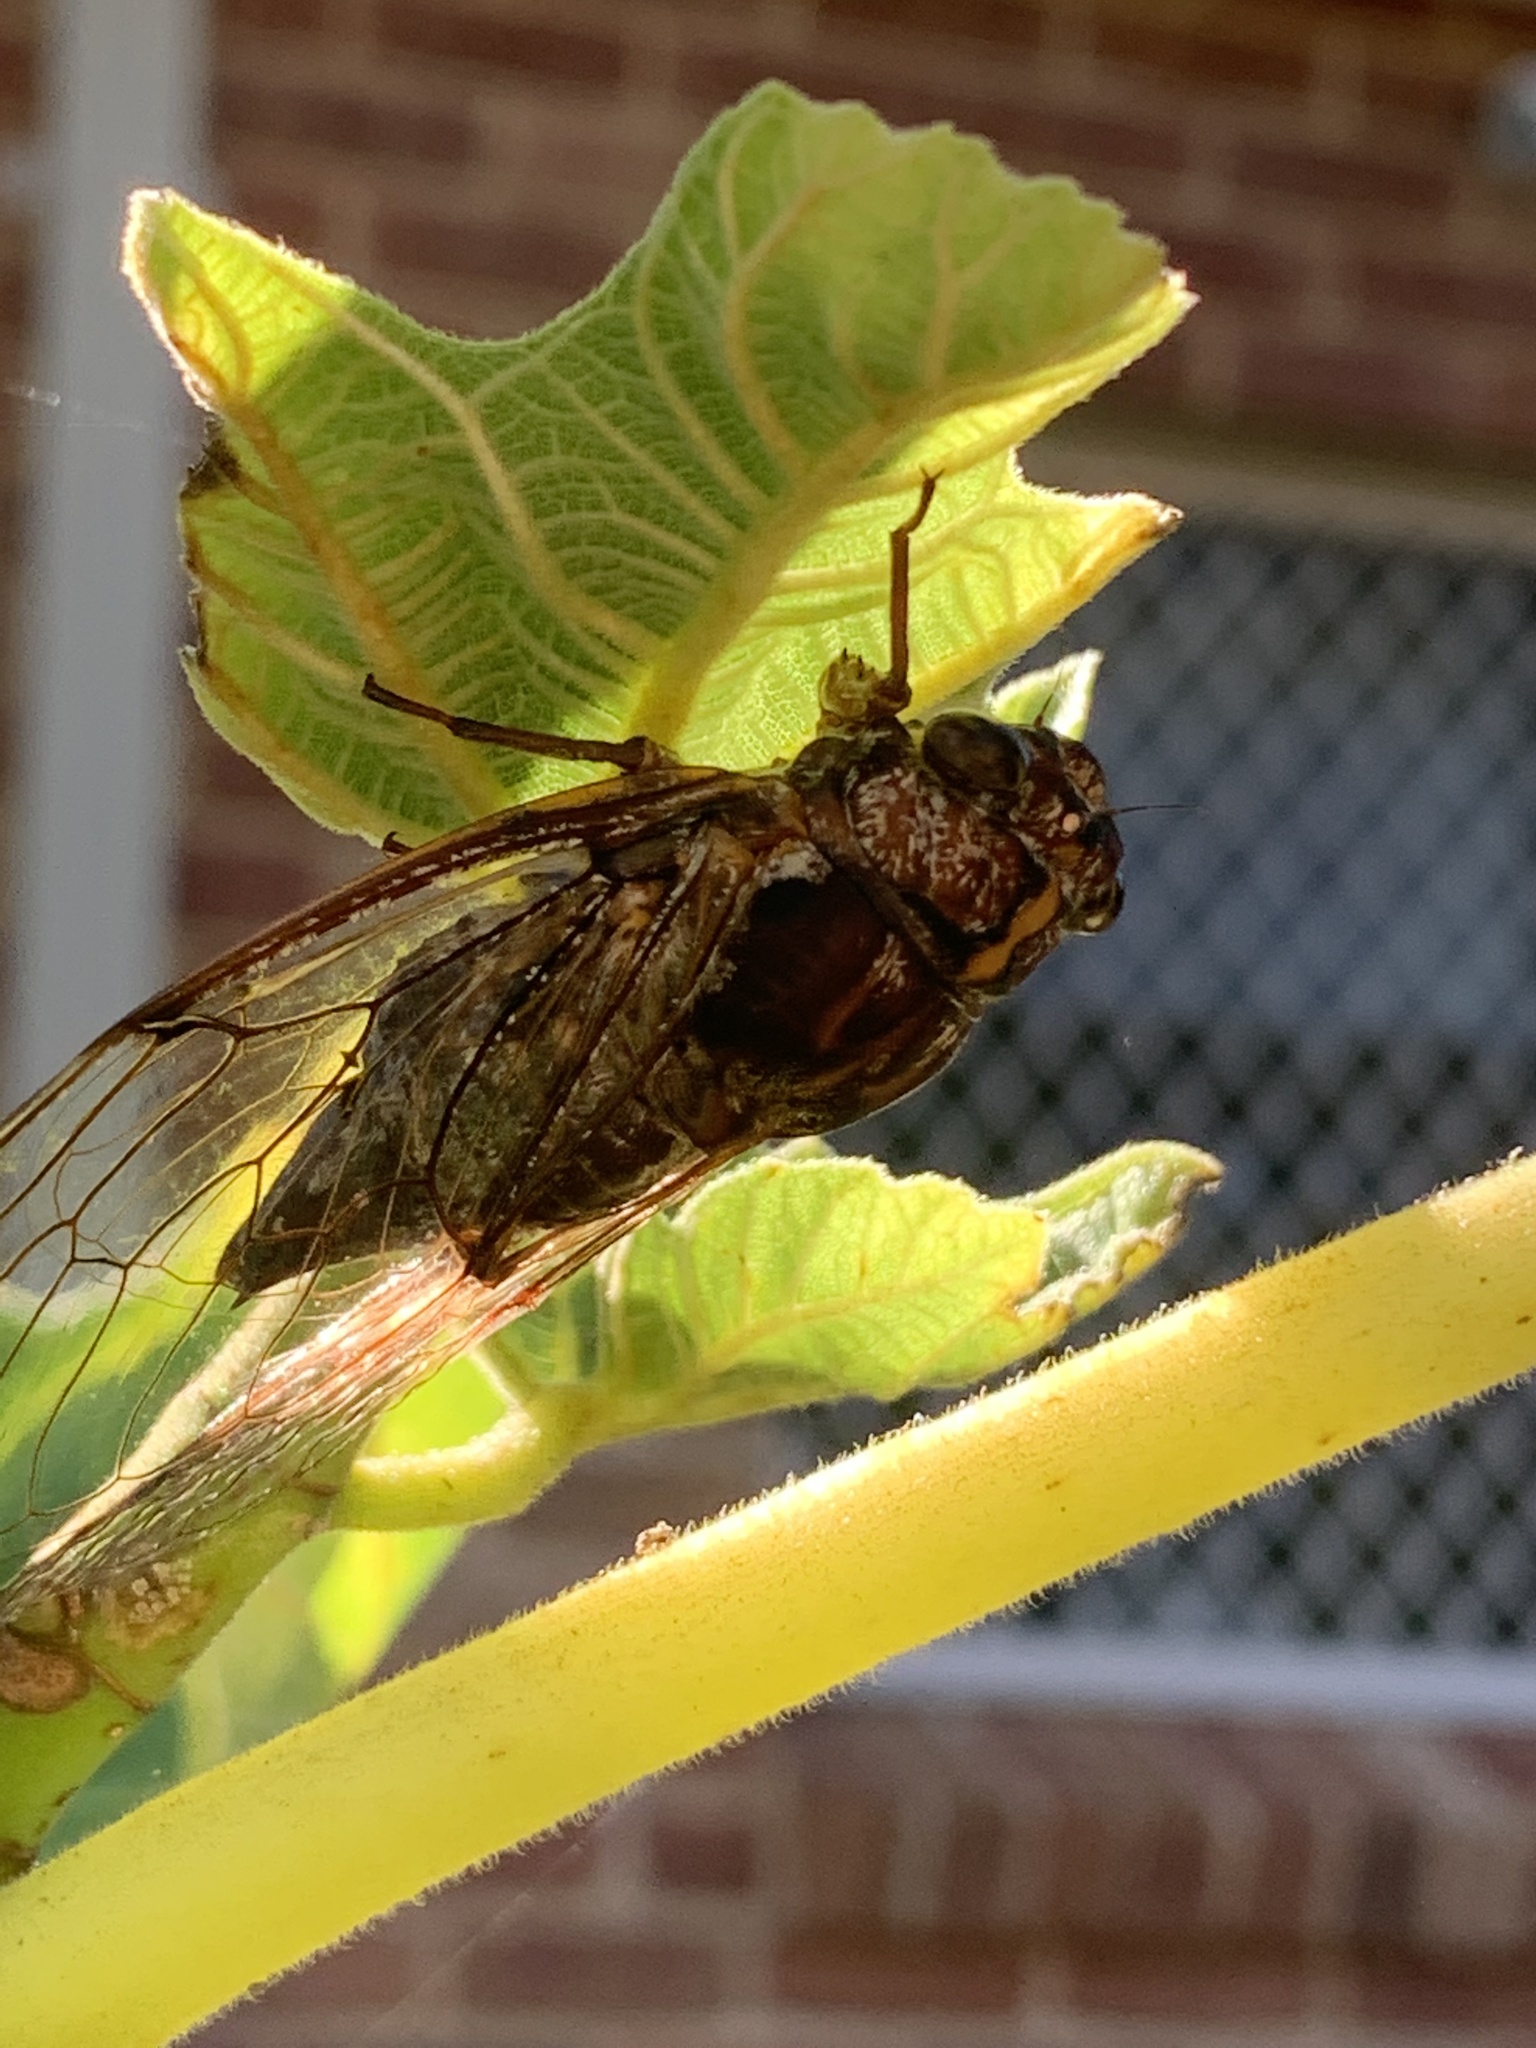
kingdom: Animalia
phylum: Arthropoda
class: Insecta
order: Hemiptera
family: Cicadidae
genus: Aleeta
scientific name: Aleeta curvicosta
